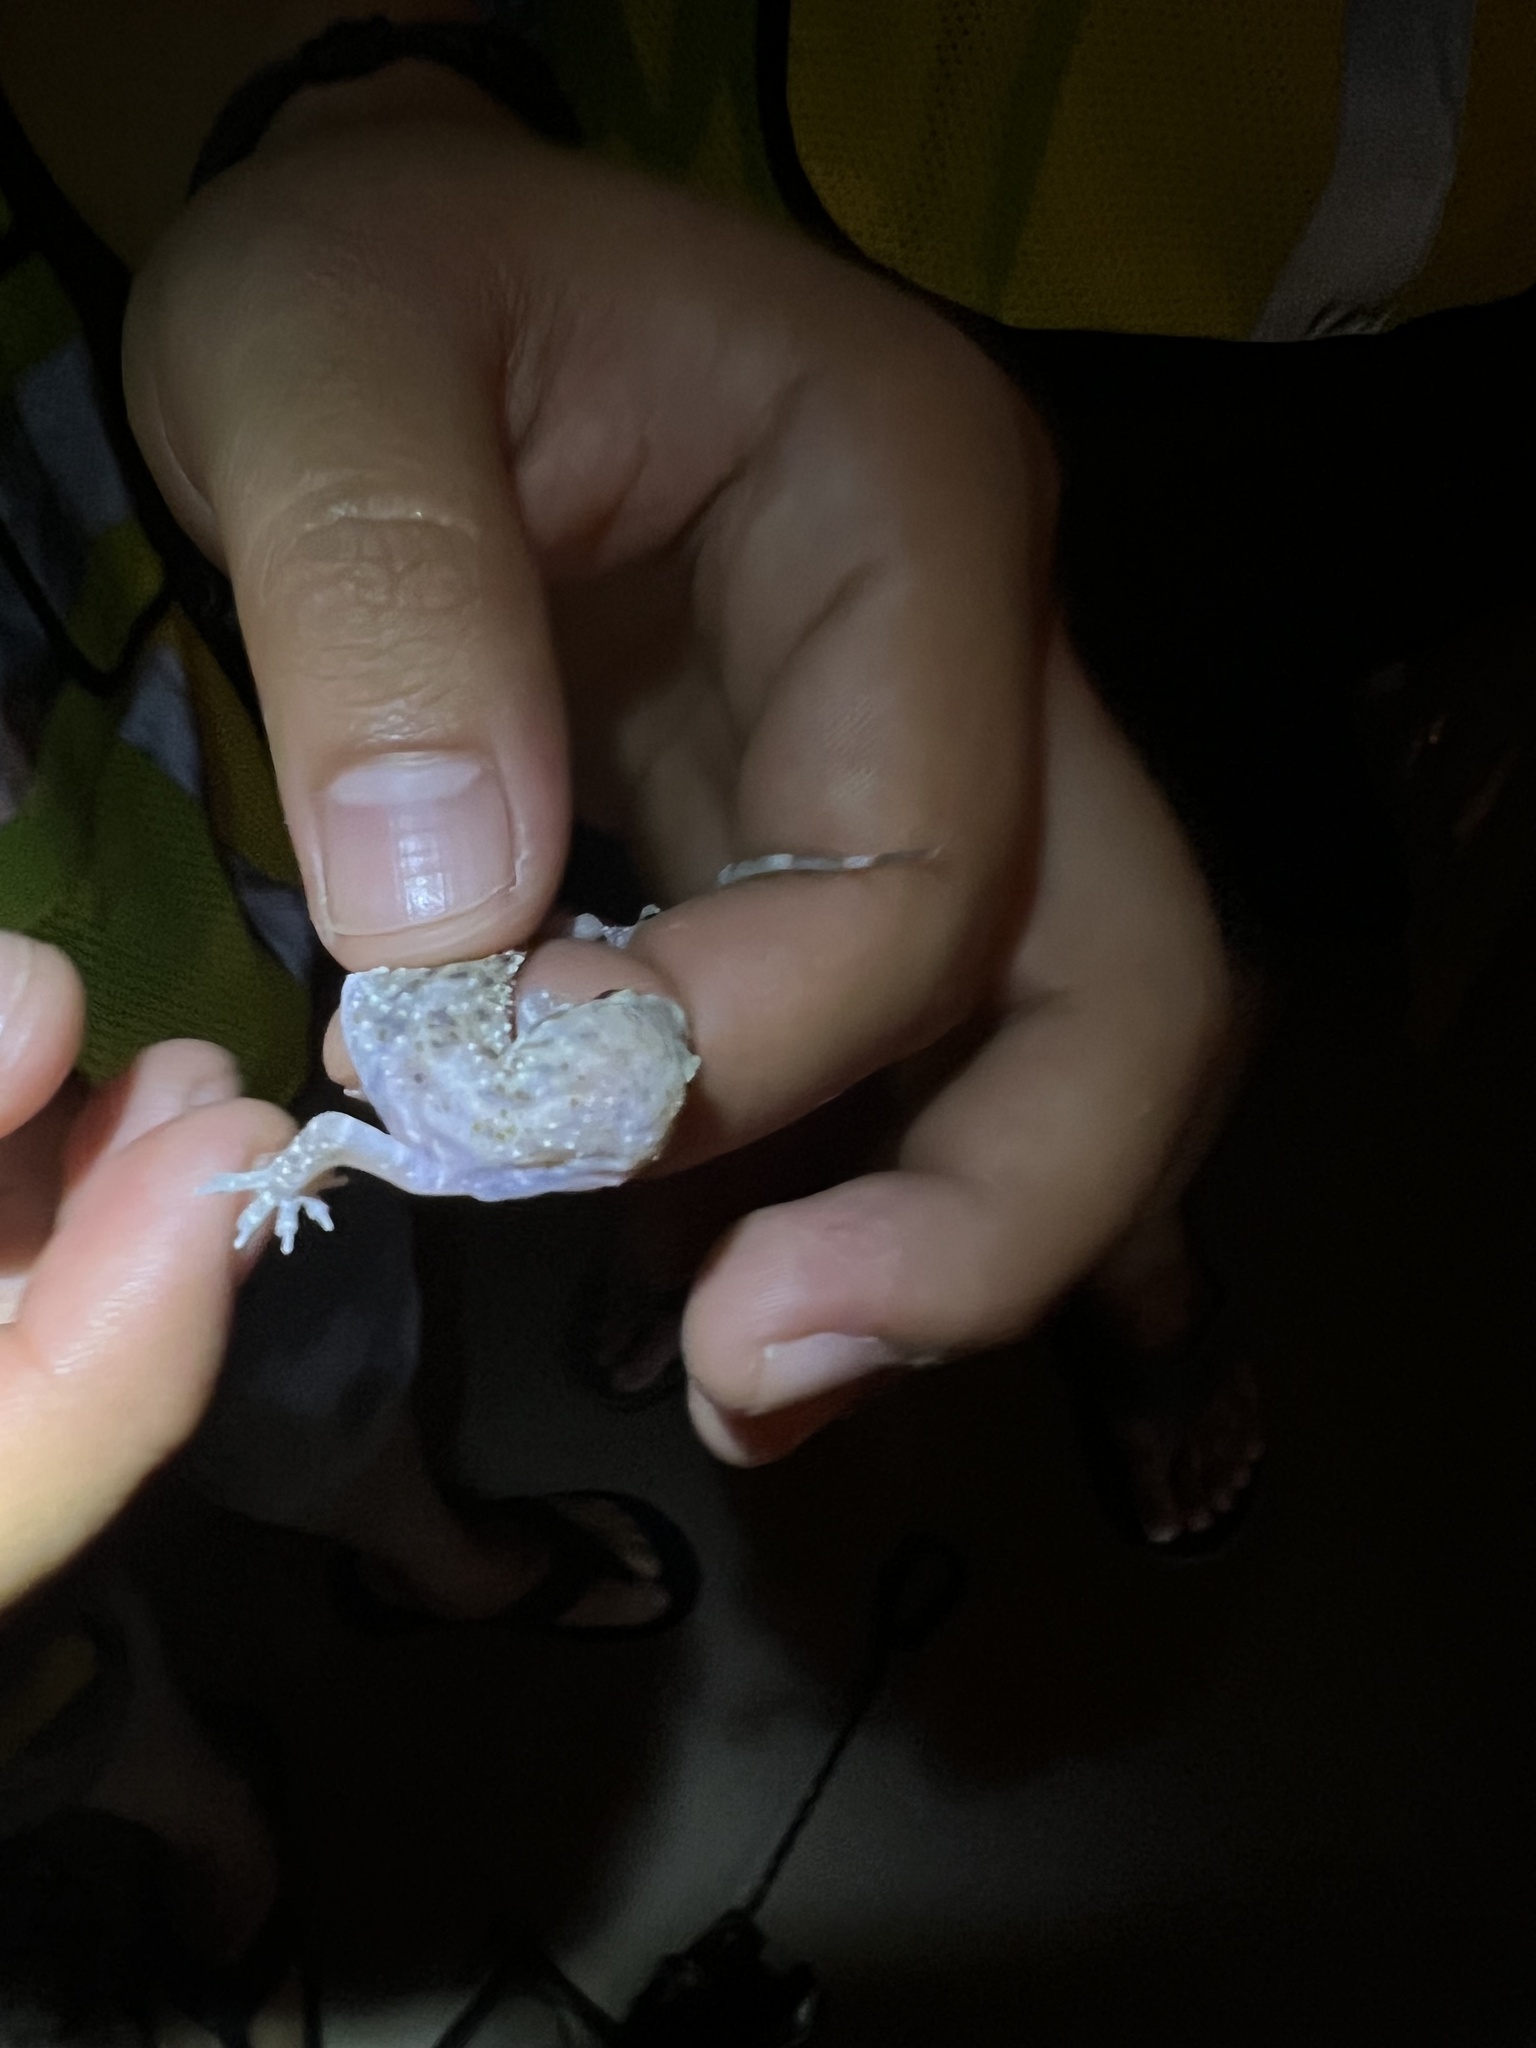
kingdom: Animalia
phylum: Chordata
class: Squamata
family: Gekkonidae
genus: Hemidactylus
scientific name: Hemidactylus turcicus
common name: Turkish gecko
